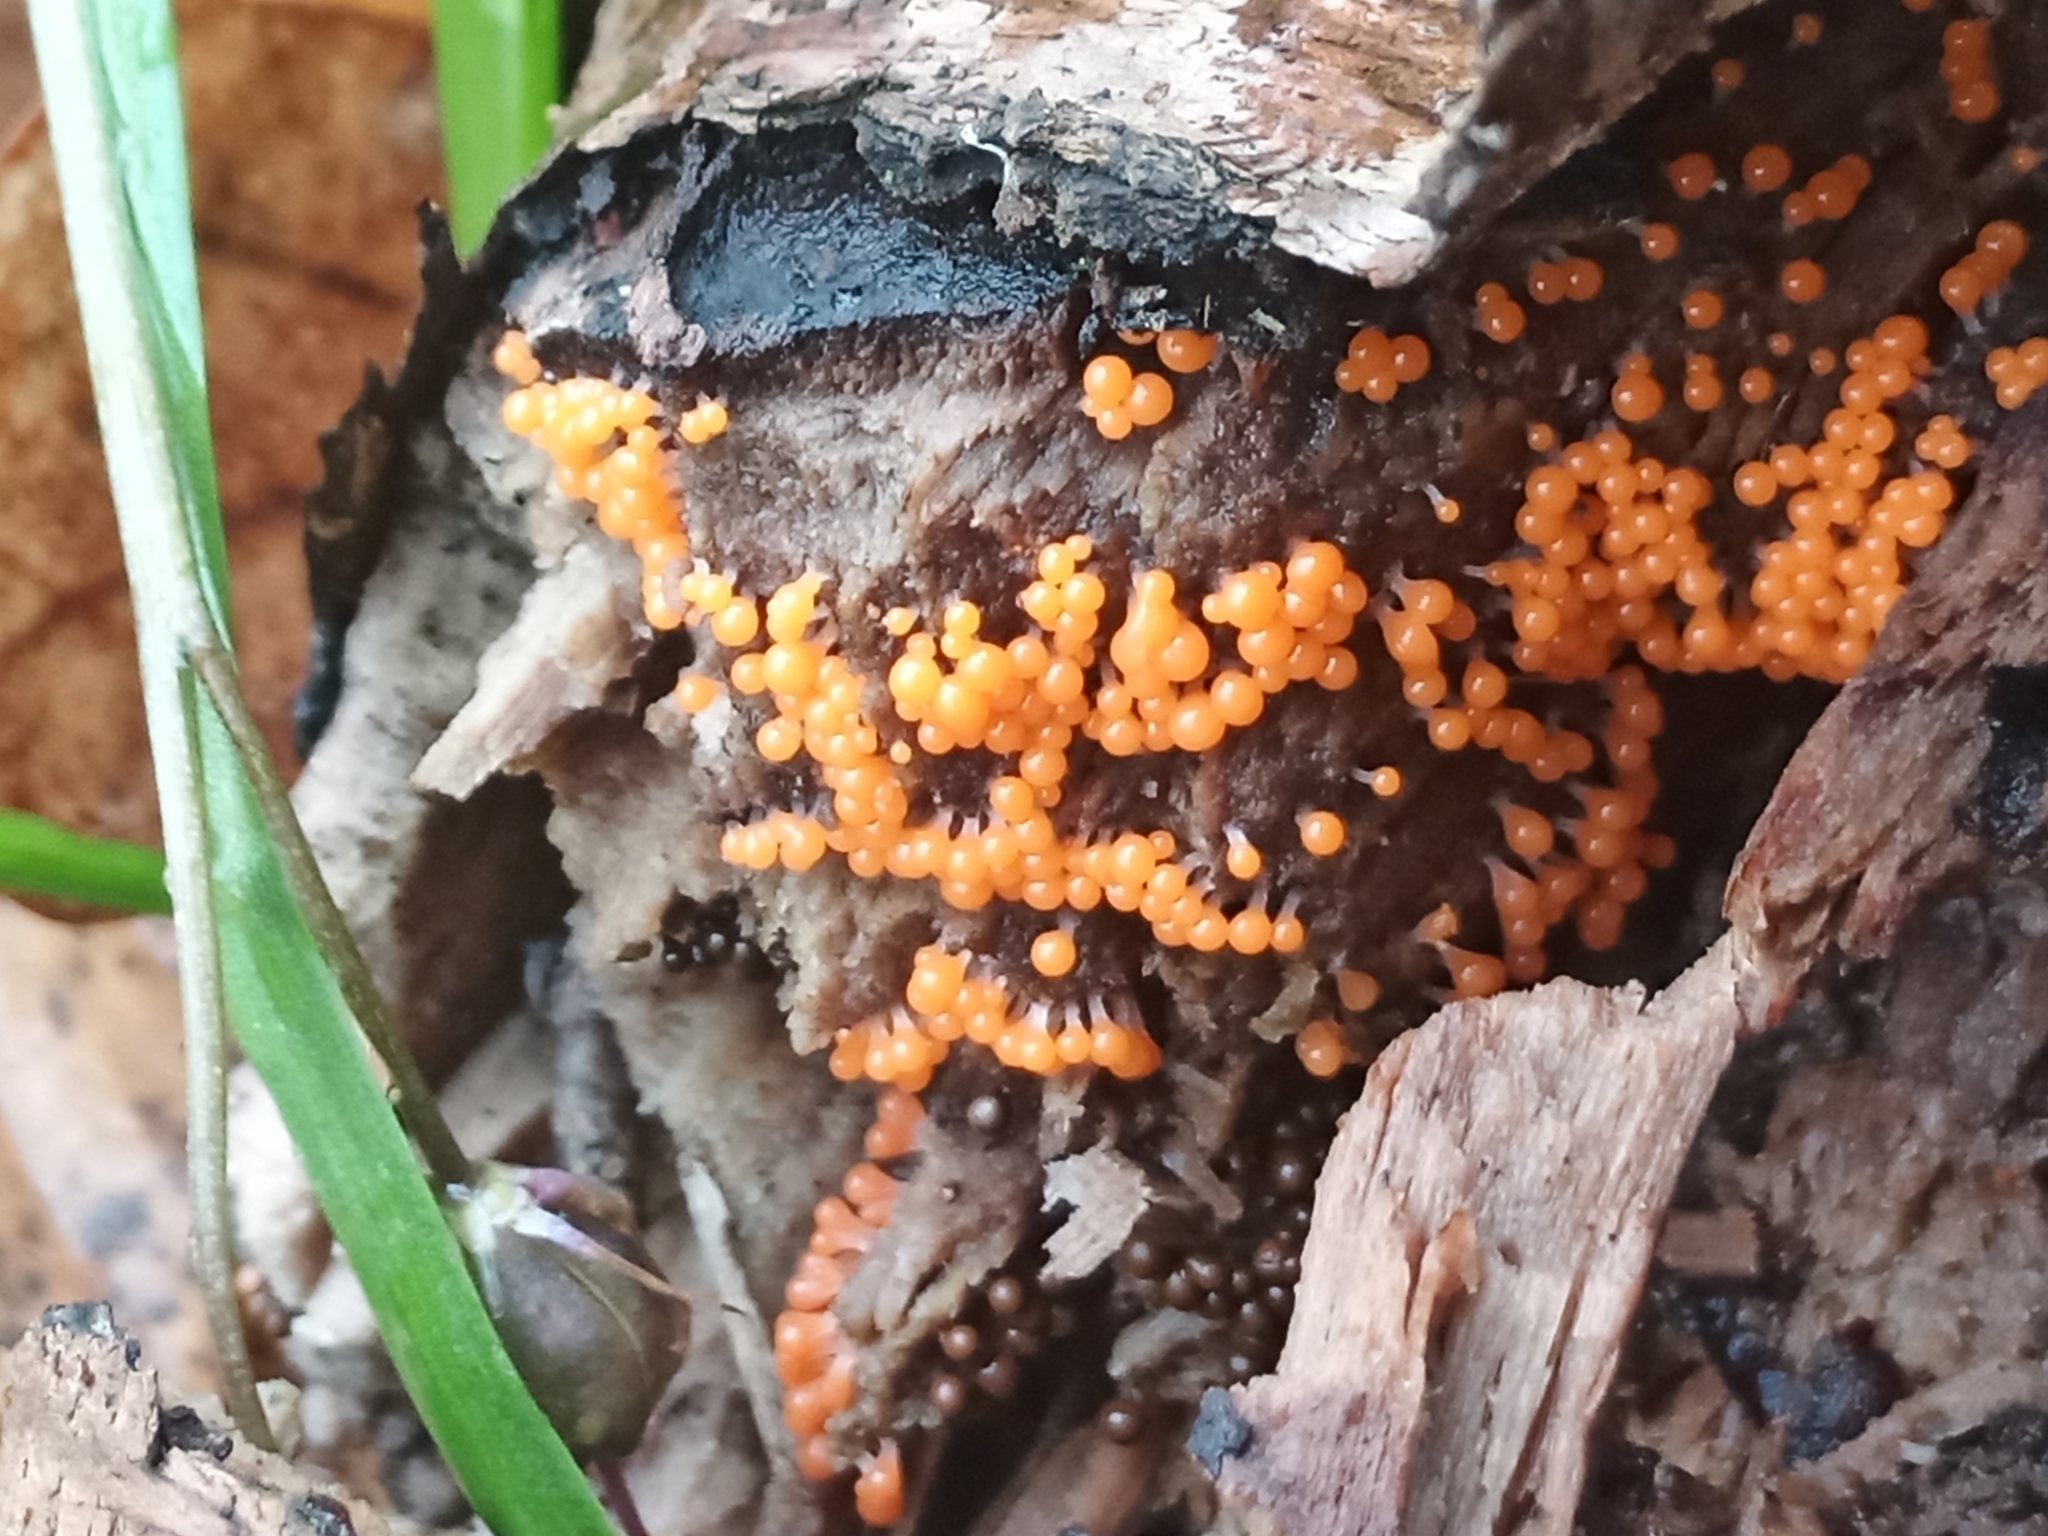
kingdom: Protozoa
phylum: Mycetozoa
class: Myxomycetes
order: Trichiales
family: Arcyriaceae
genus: Hemitrichia
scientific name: Hemitrichia decipiens
